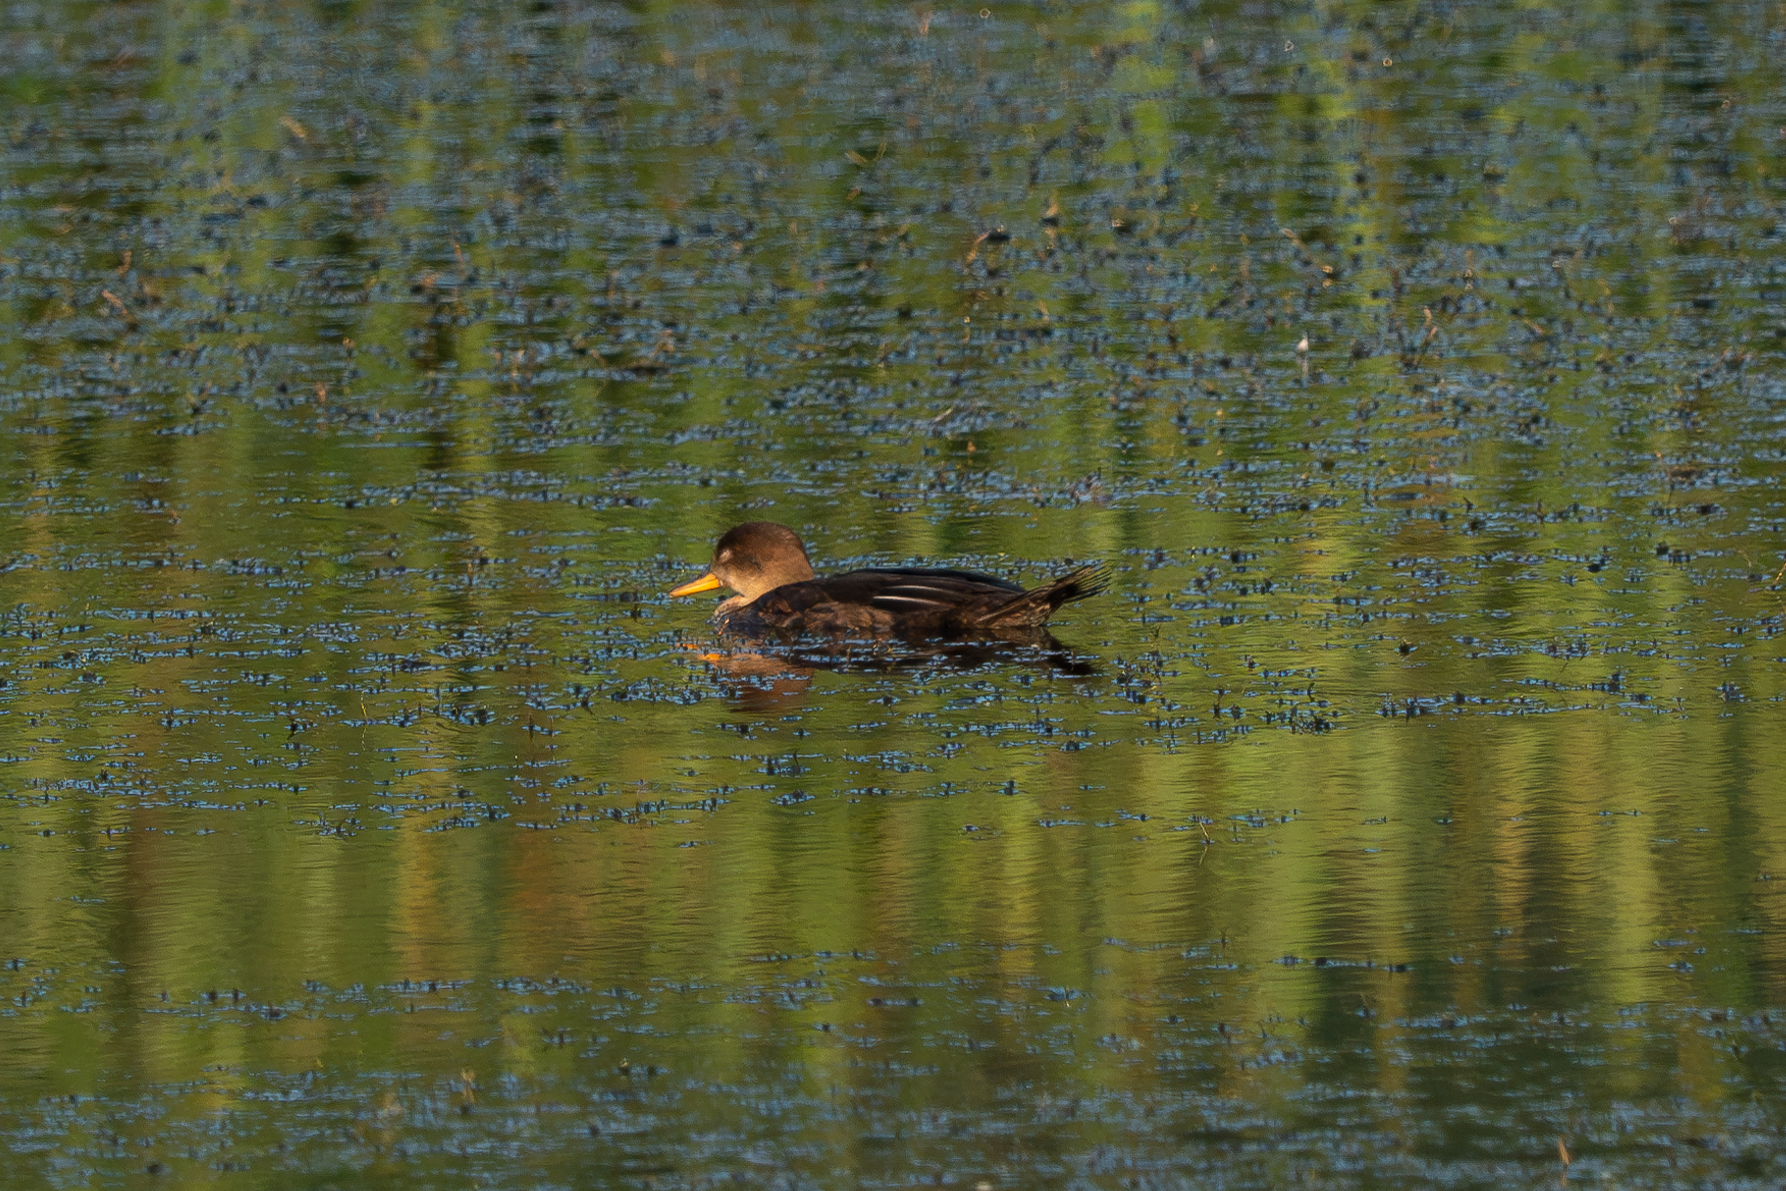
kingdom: Animalia
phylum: Chordata
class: Aves
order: Anseriformes
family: Anatidae
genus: Lophodytes
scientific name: Lophodytes cucullatus
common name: Hooded merganser
